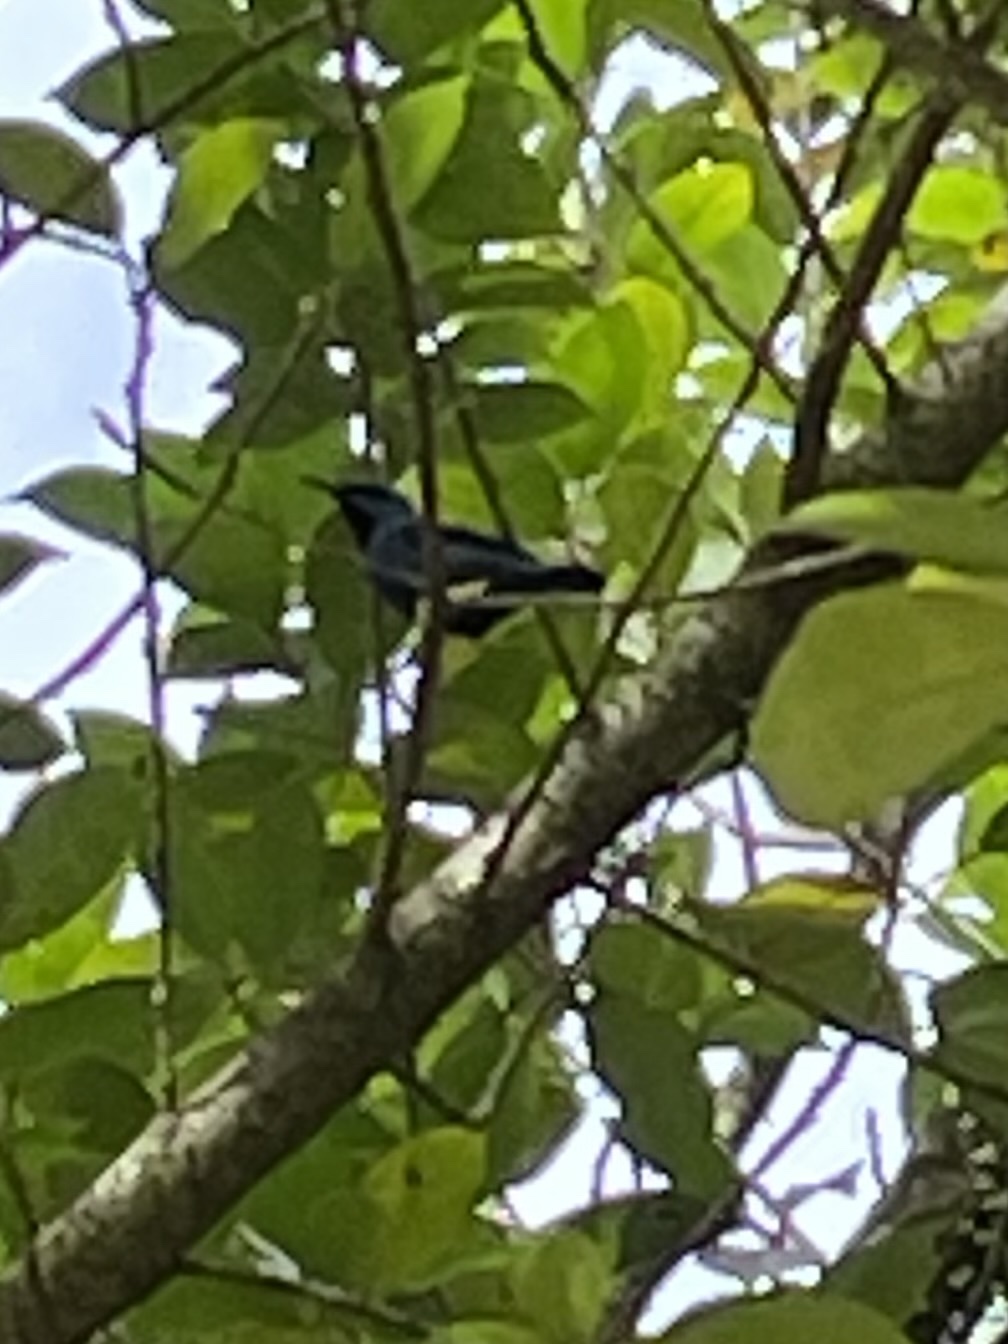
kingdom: Animalia
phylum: Chordata
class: Aves
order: Passeriformes
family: Thraupidae
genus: Cyanerpes
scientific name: Cyanerpes lucidus
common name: Shining honeycreeper
